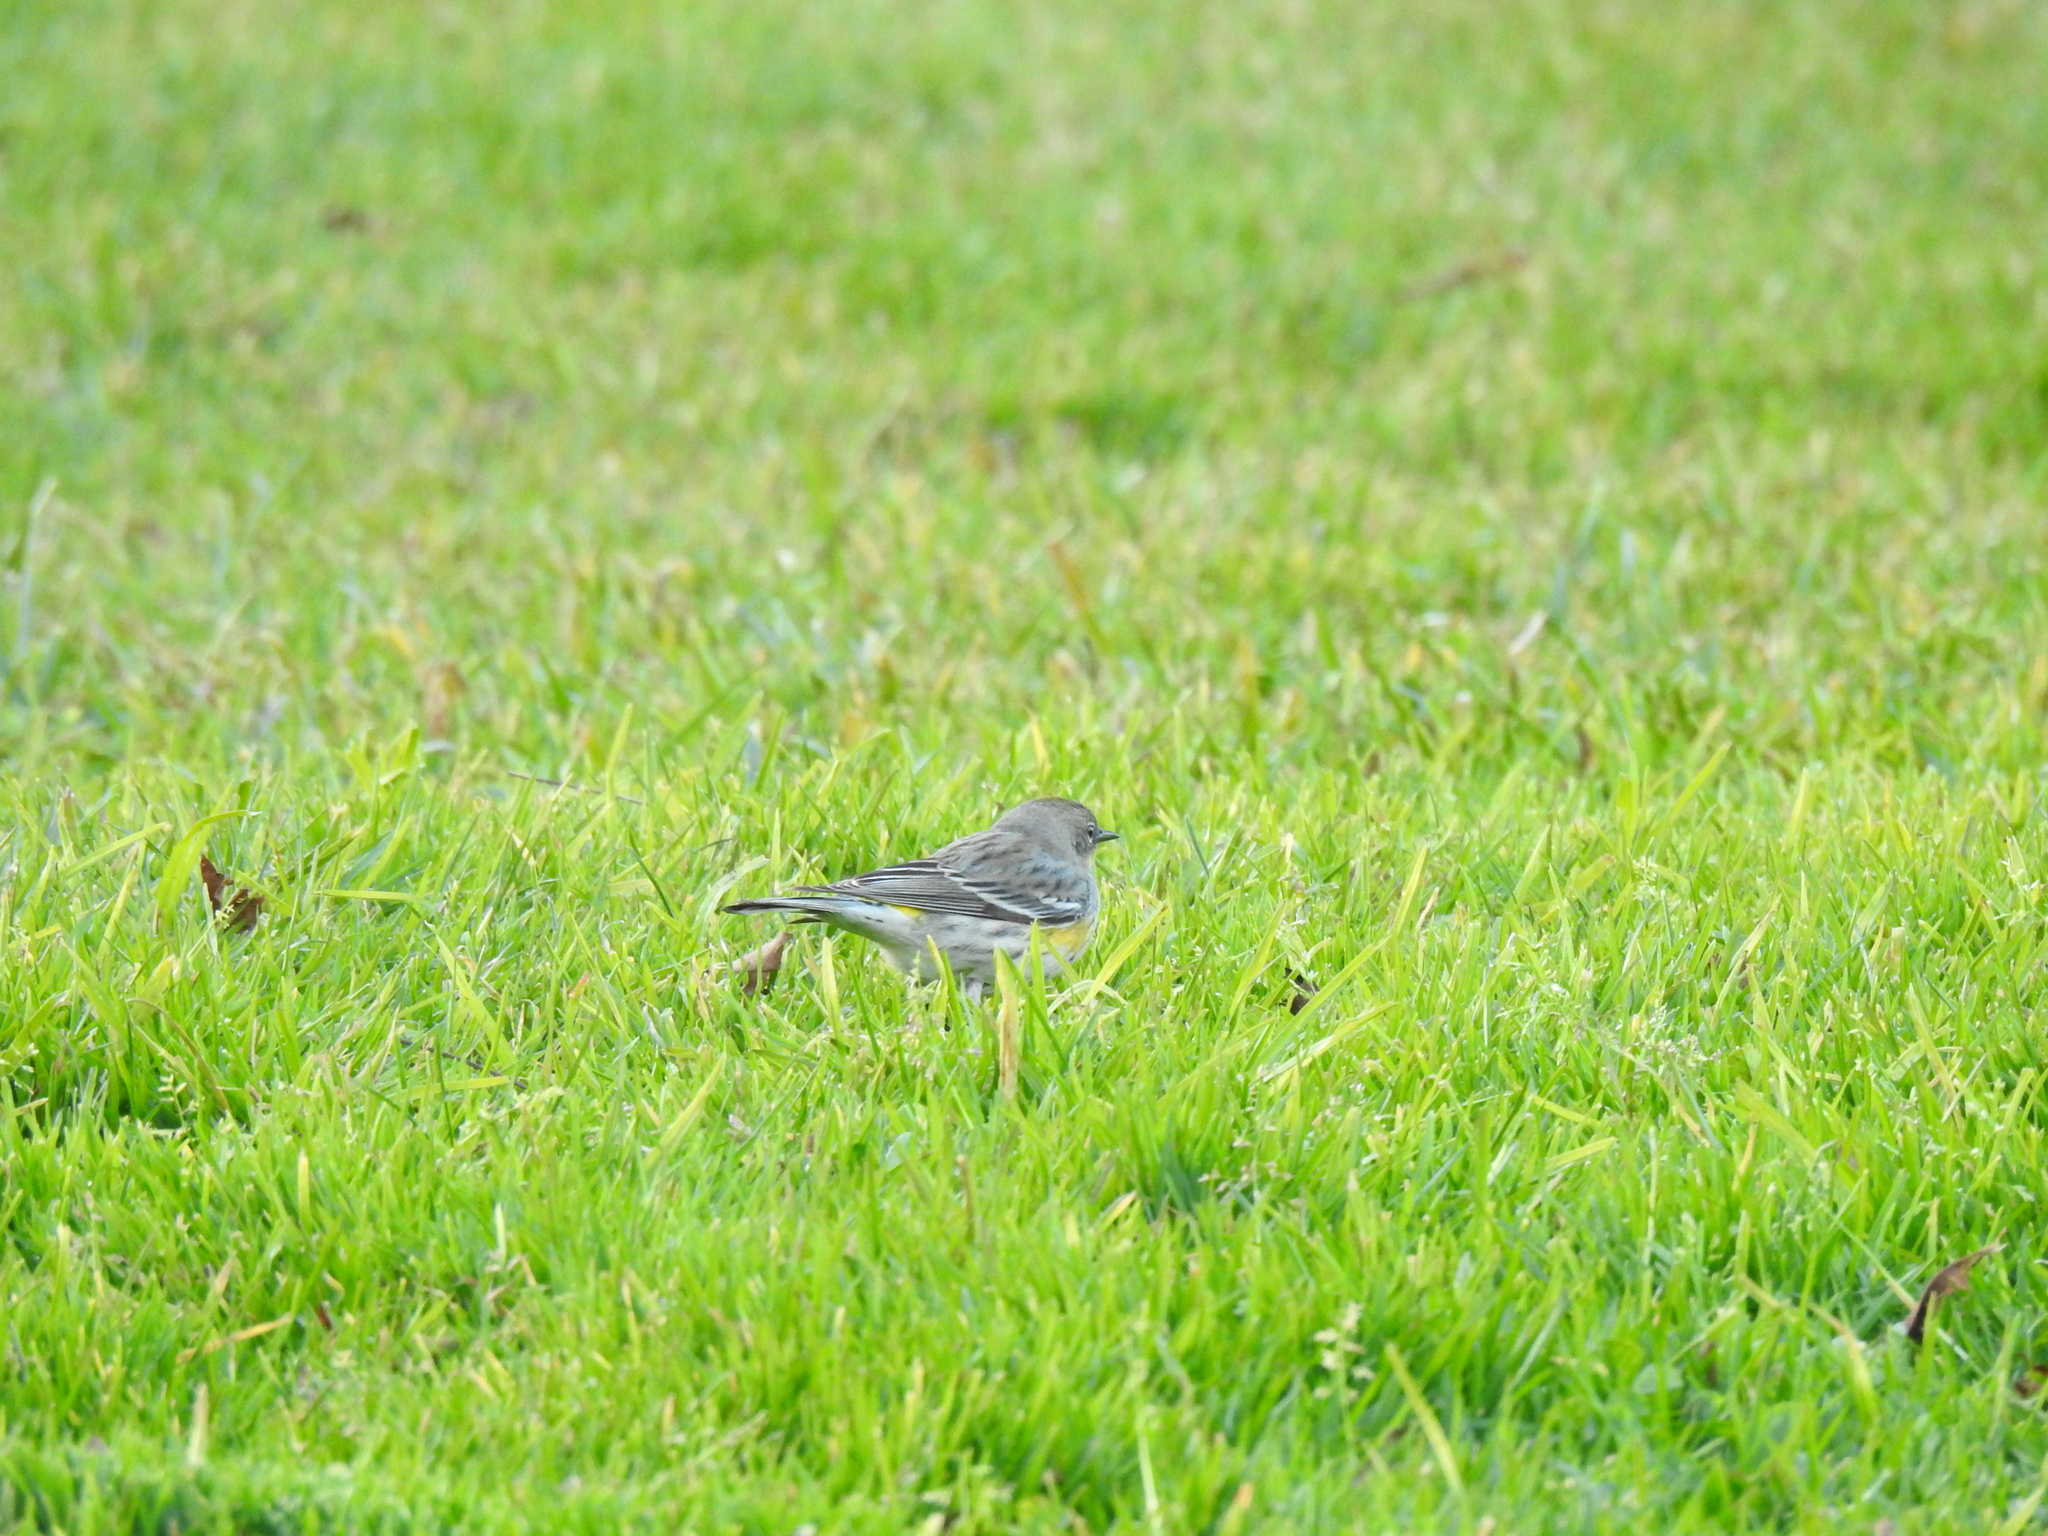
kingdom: Animalia
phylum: Chordata
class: Aves
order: Passeriformes
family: Parulidae
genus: Setophaga
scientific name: Setophaga coronata
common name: Myrtle warbler
